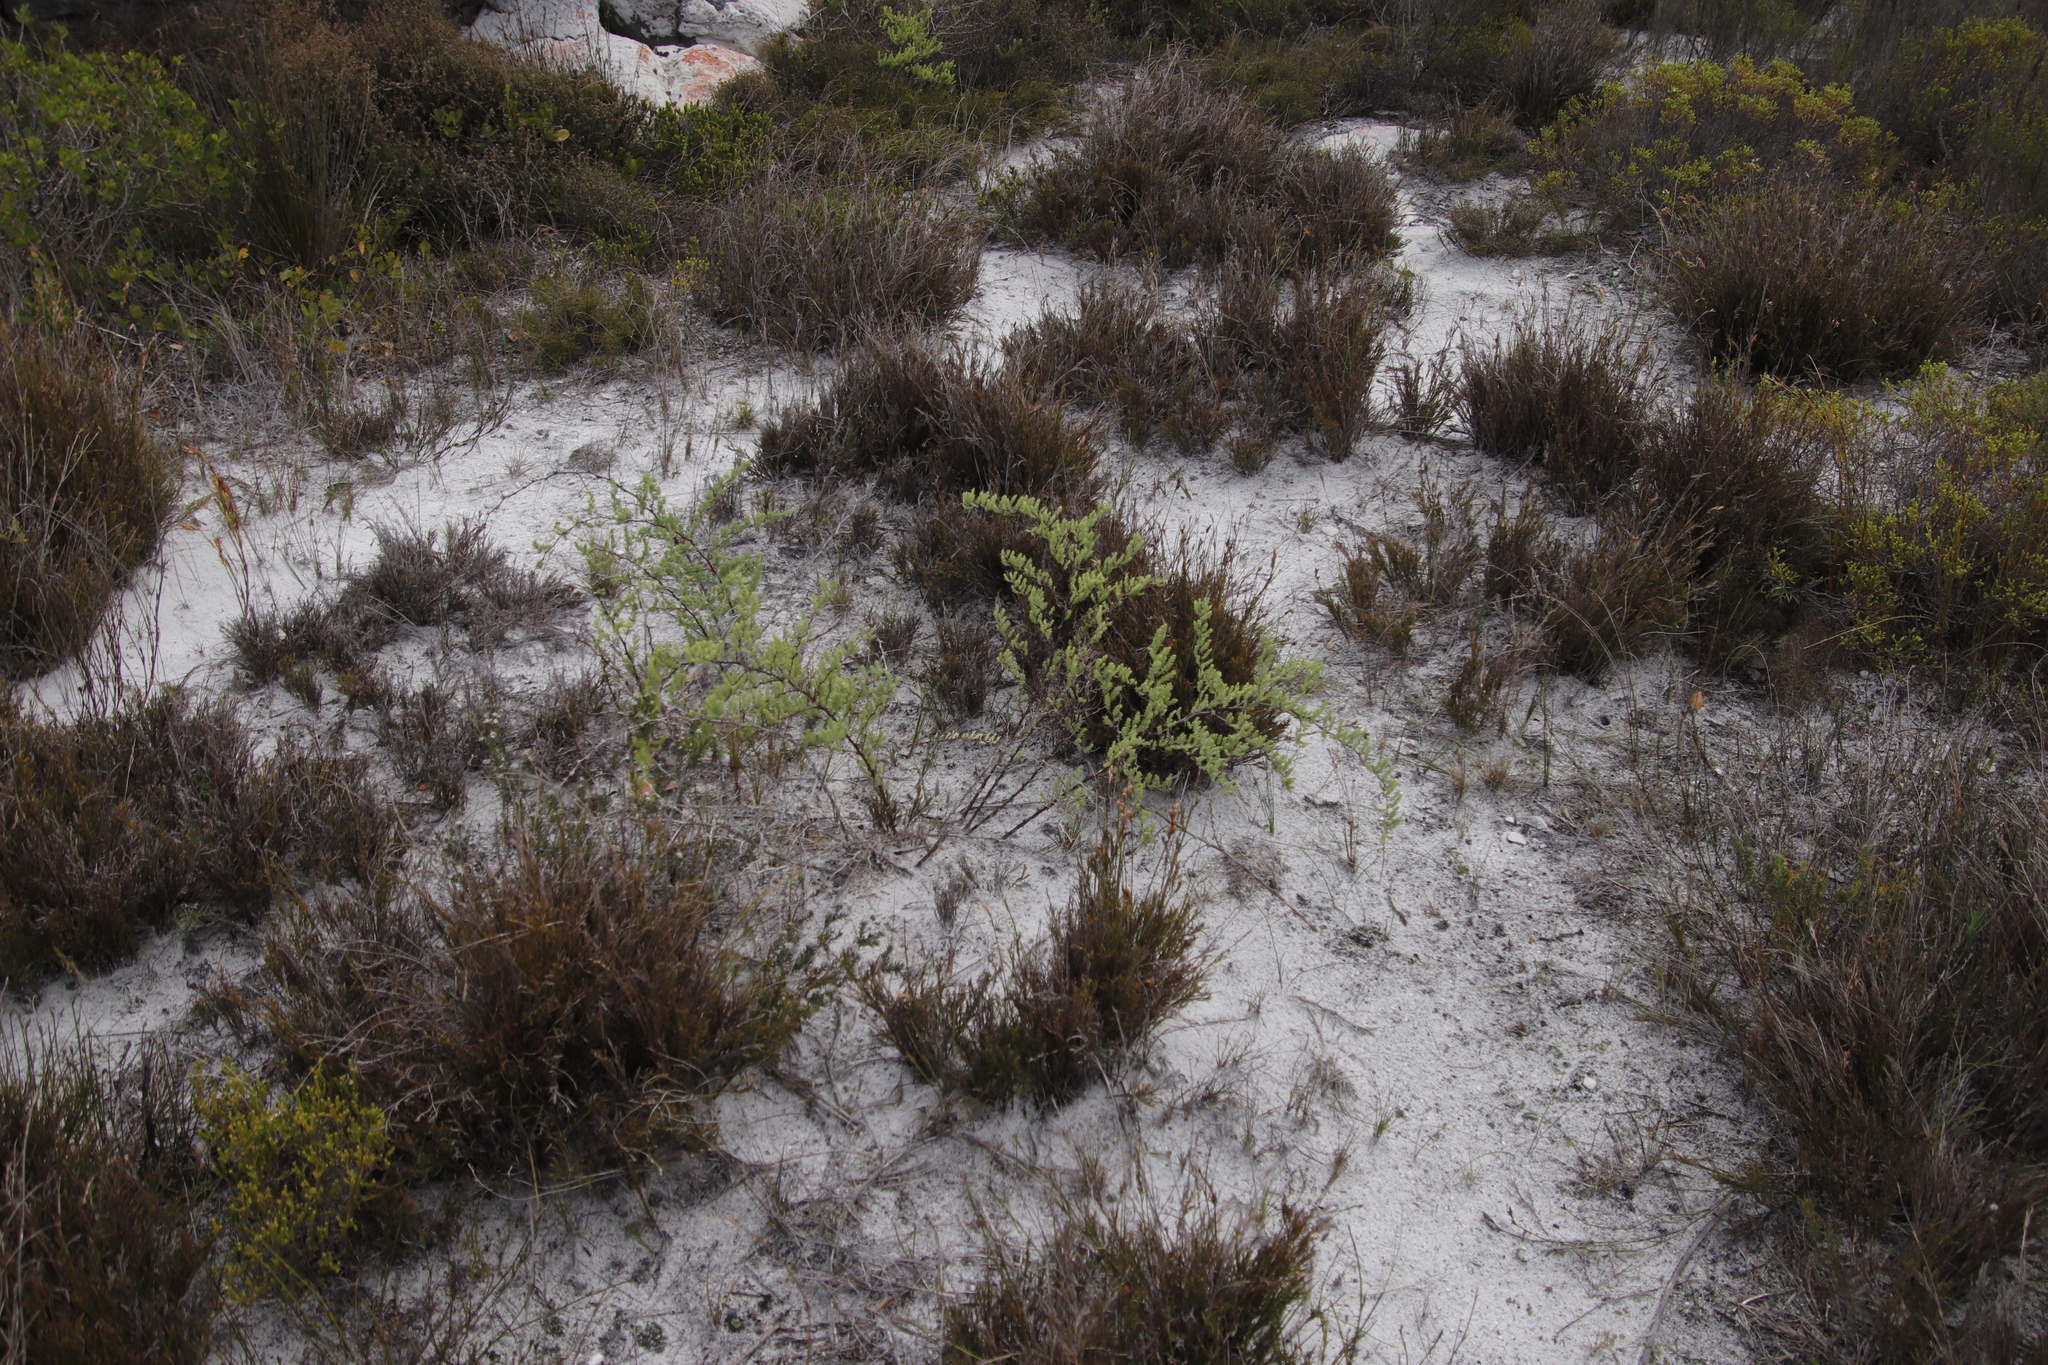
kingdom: Plantae
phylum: Tracheophyta
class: Liliopsida
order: Asparagales
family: Asparagaceae
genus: Asparagus
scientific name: Asparagus rubicundus
